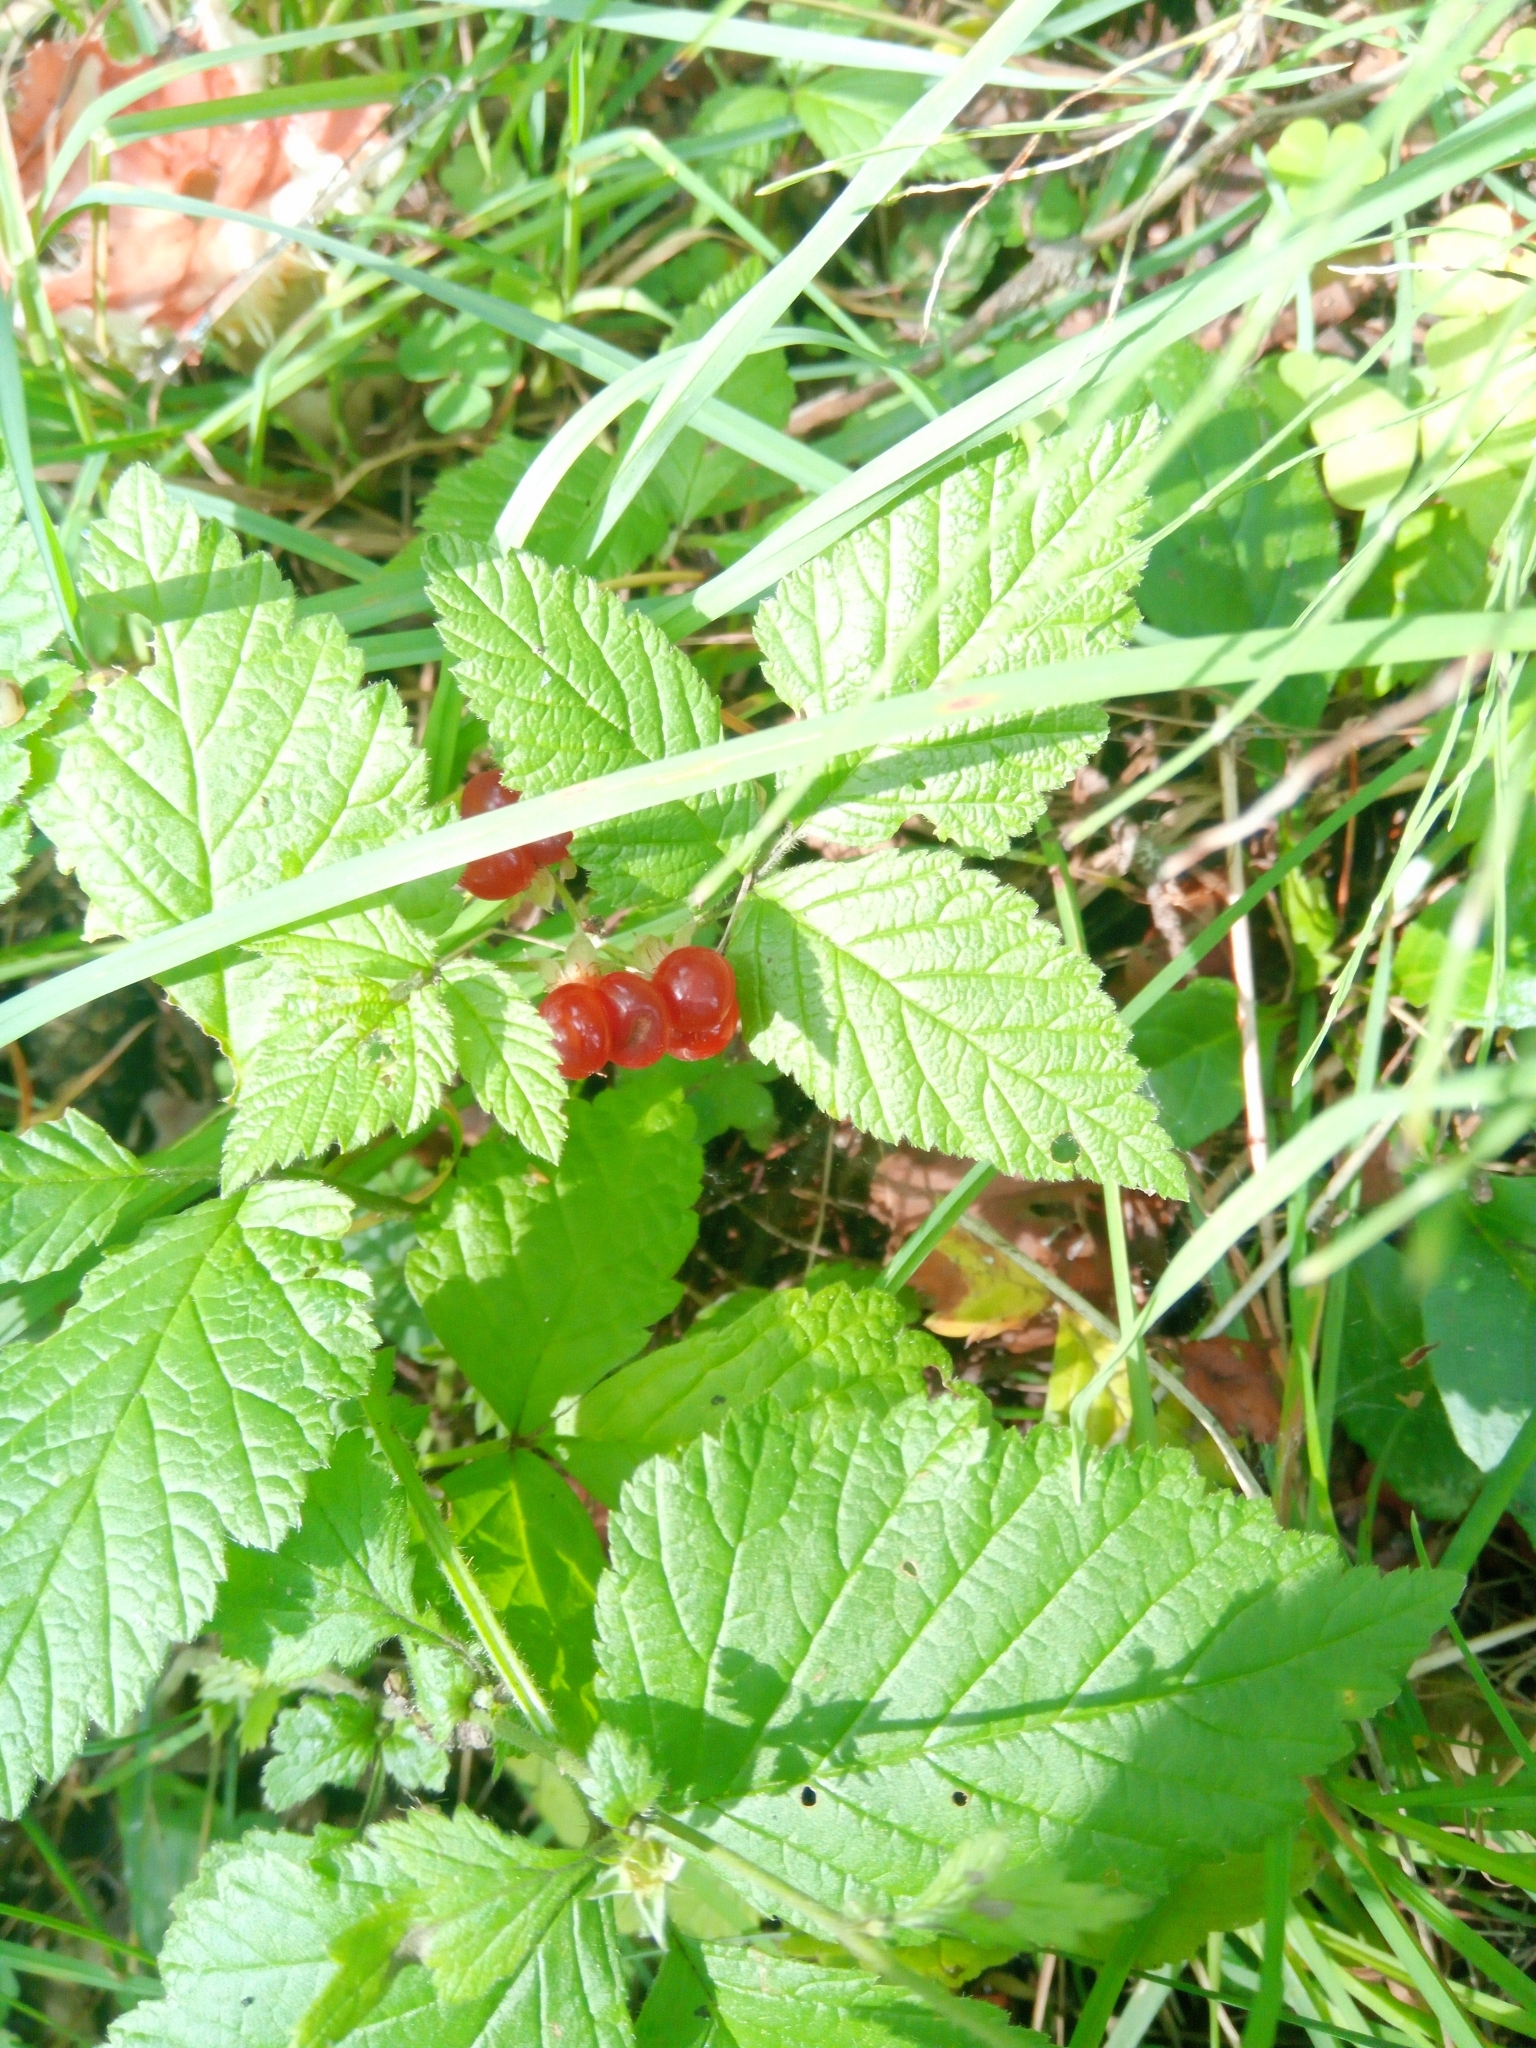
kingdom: Plantae
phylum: Tracheophyta
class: Magnoliopsida
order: Rosales
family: Rosaceae
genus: Rubus
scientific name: Rubus saxatilis
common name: Stone bramble
